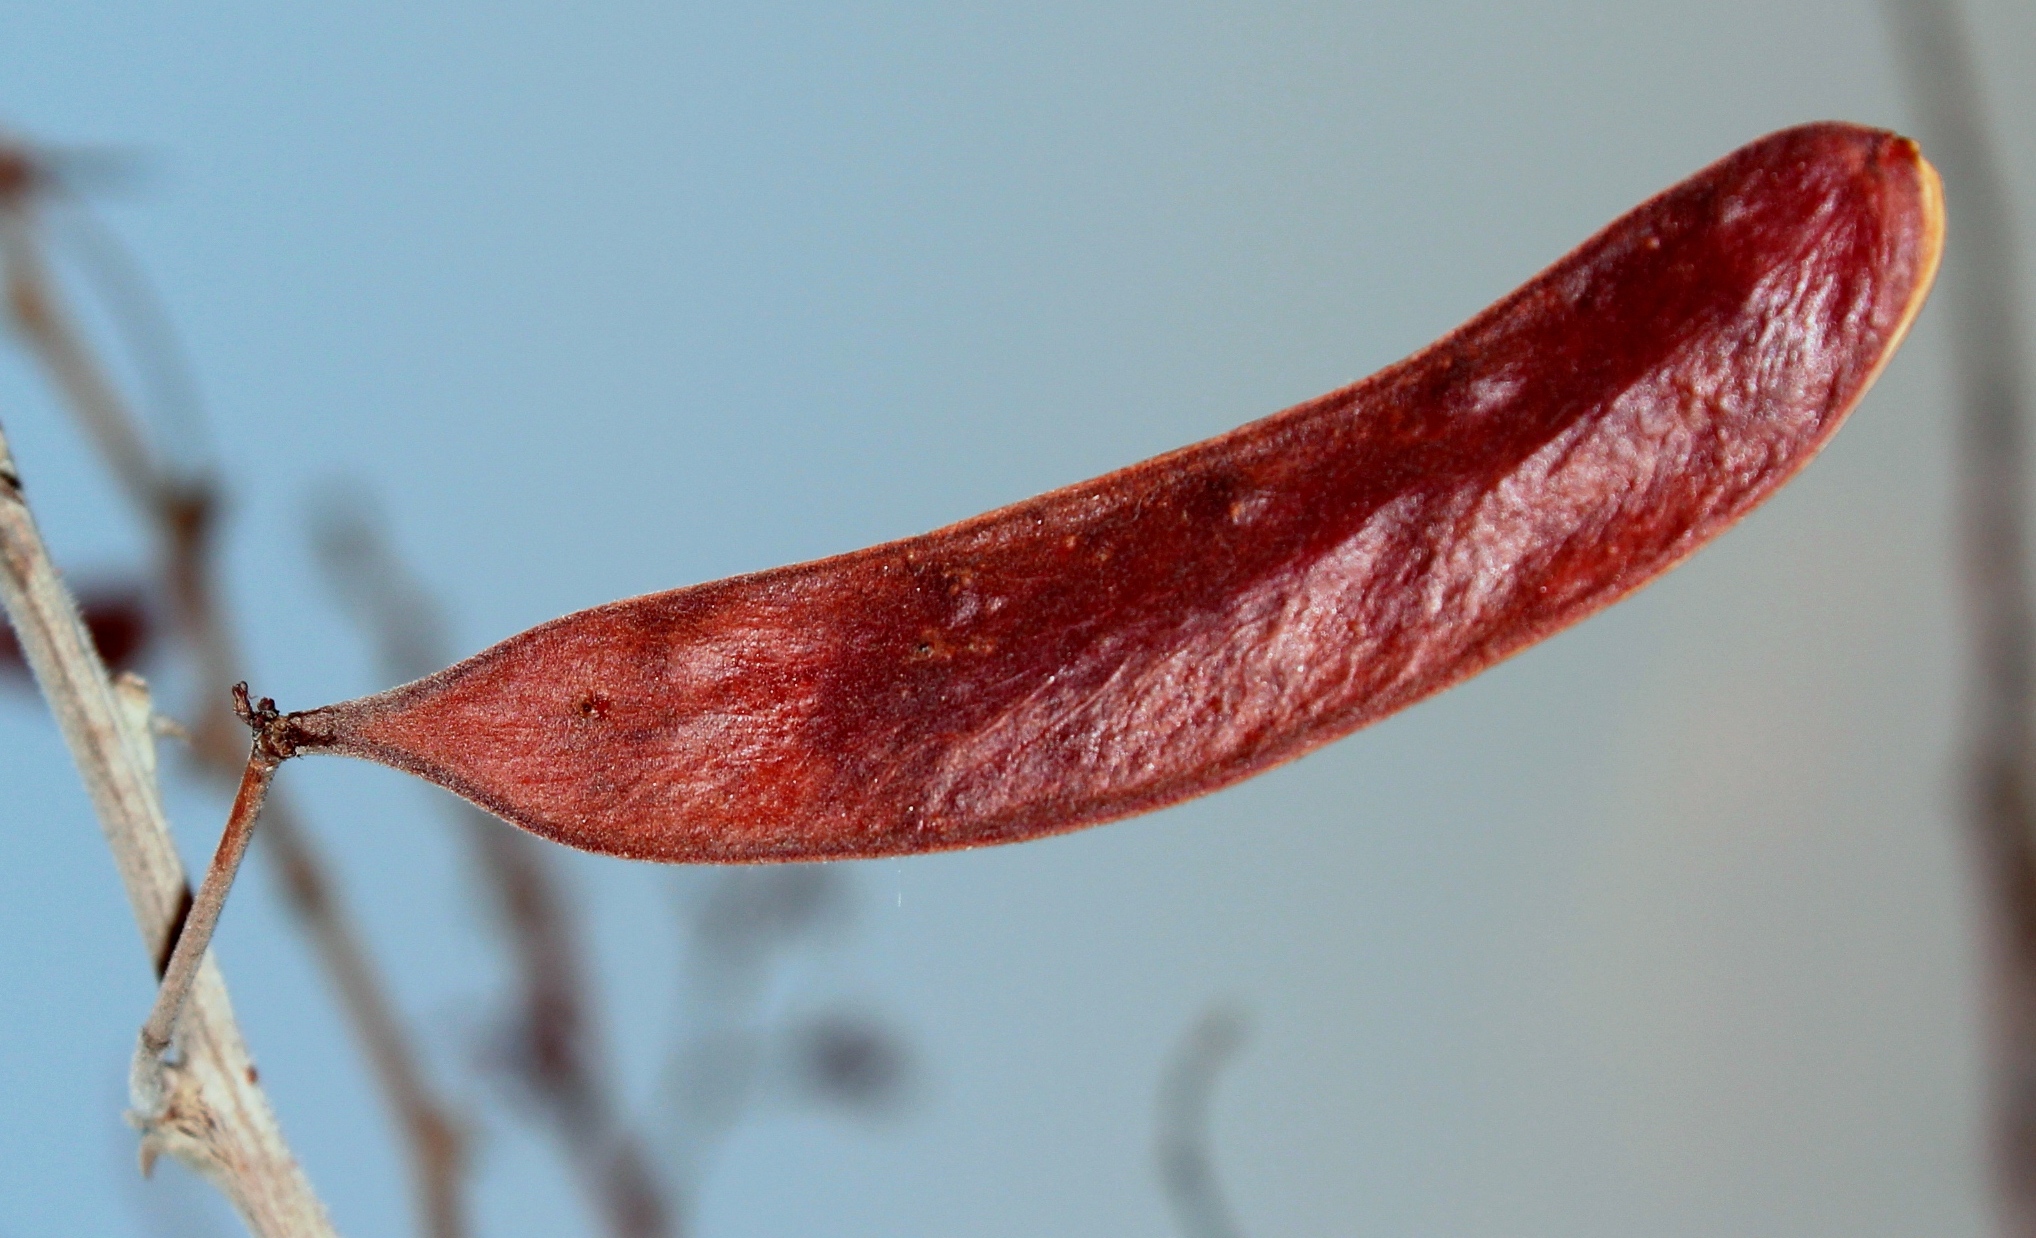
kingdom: Plantae
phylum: Tracheophyta
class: Magnoliopsida
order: Fabales
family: Fabaceae
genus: Vachellia
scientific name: Vachellia luederitzii
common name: Bastard umbrella thorn
